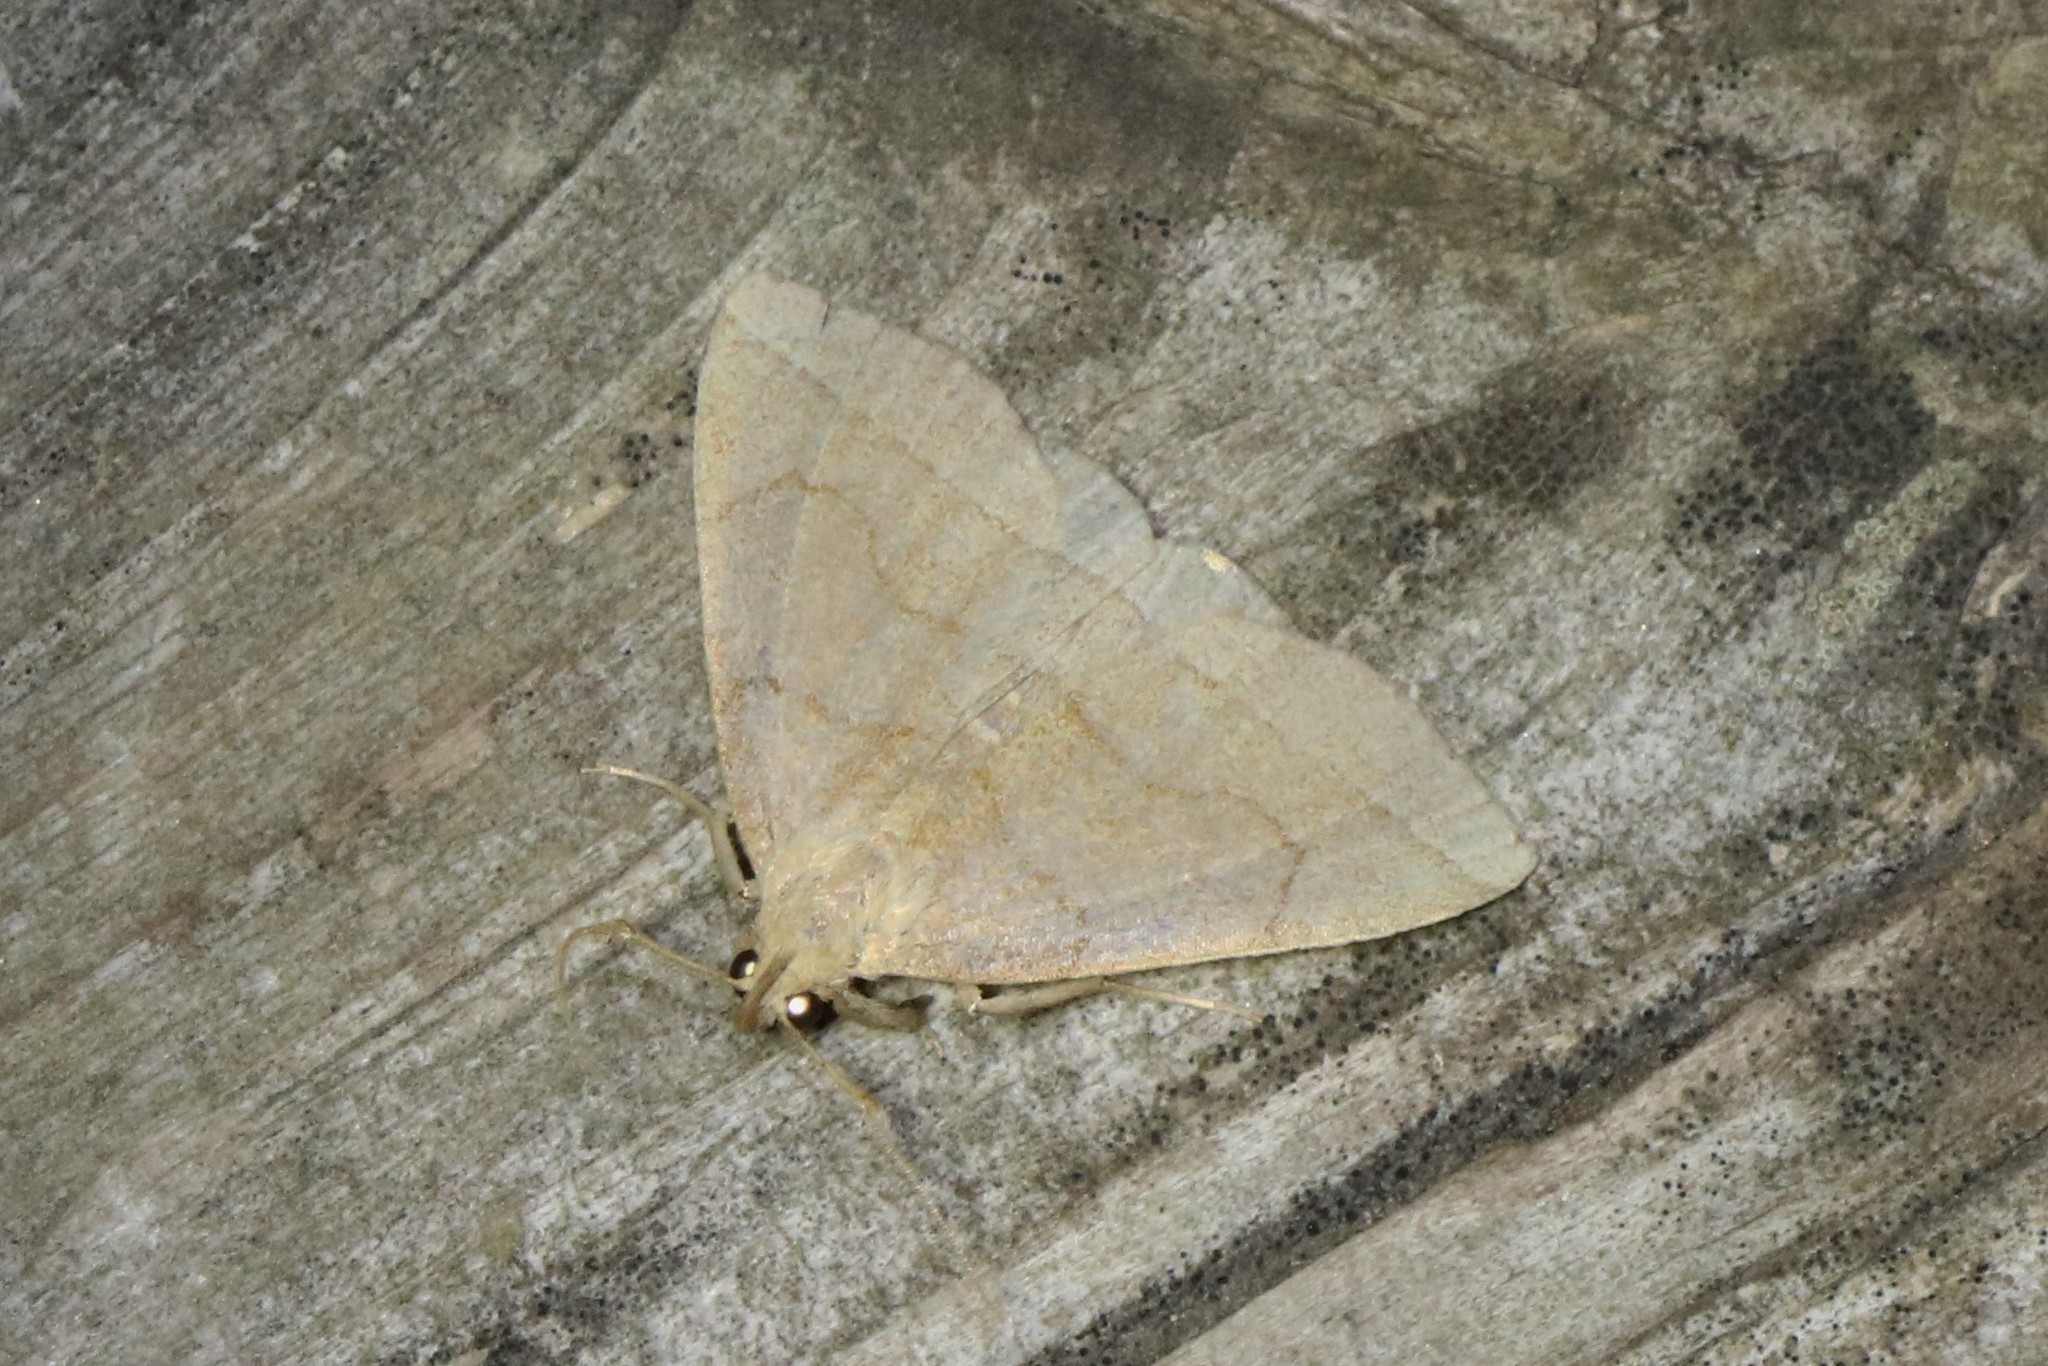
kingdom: Animalia
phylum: Arthropoda
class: Insecta
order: Lepidoptera
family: Erebidae
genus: Zanclognatha
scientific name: Zanclognatha cruralis
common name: Early fan-foot
